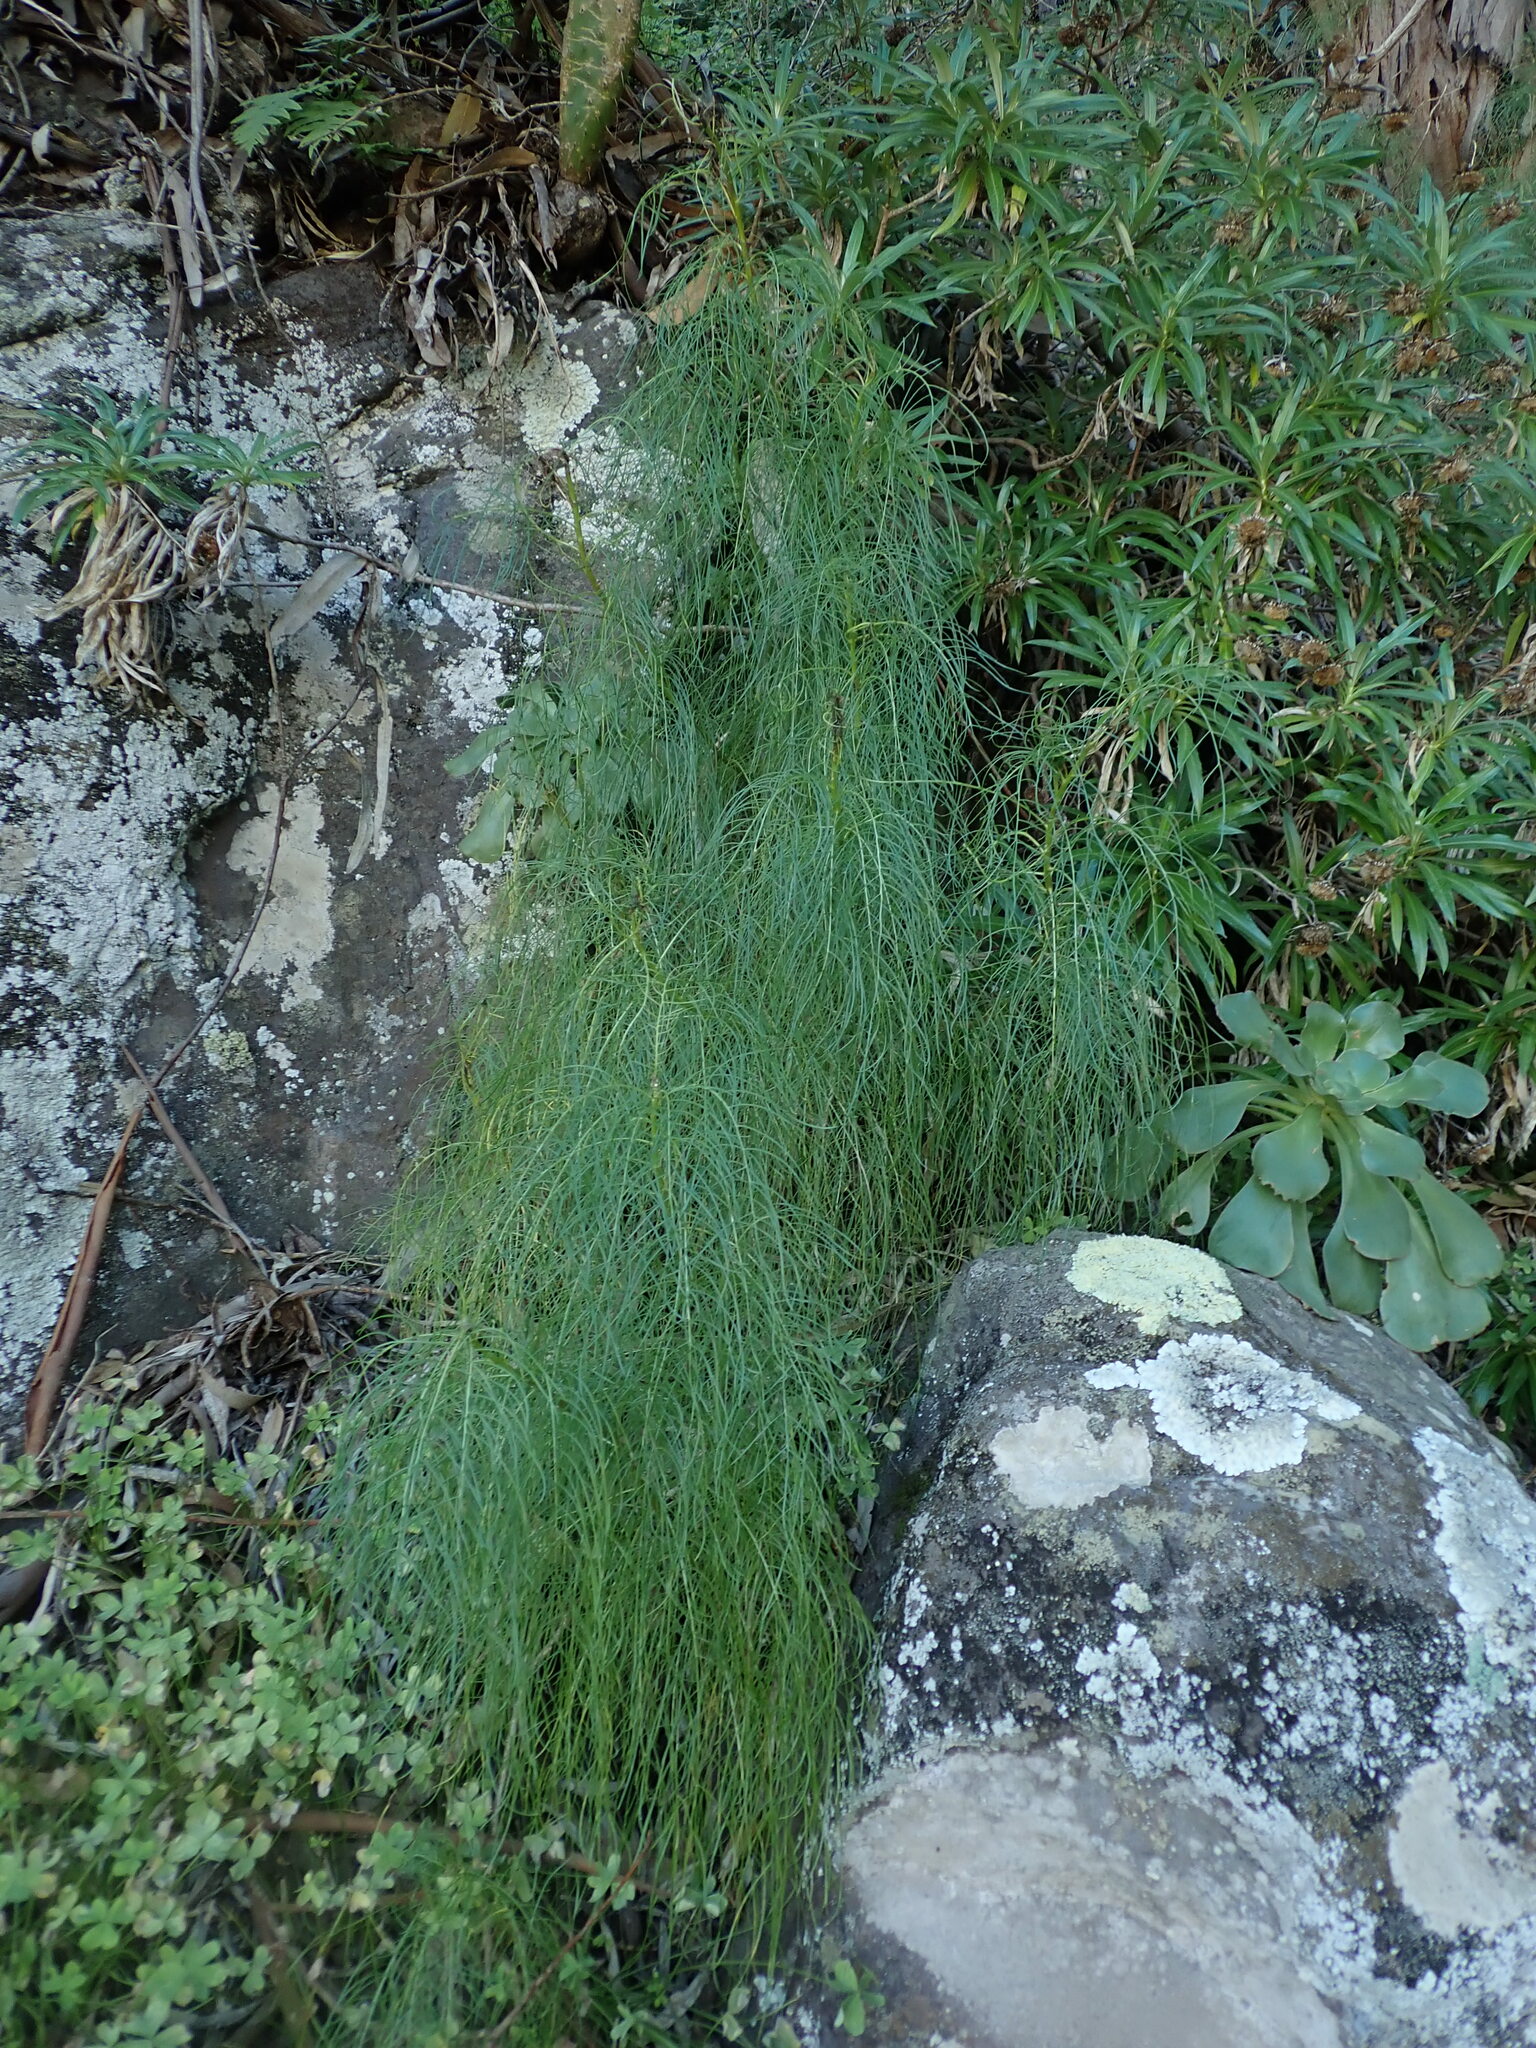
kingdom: Plantae
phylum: Tracheophyta
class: Magnoliopsida
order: Asterales
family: Asteraceae
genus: Sonchus
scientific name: Sonchus leptocephalus
